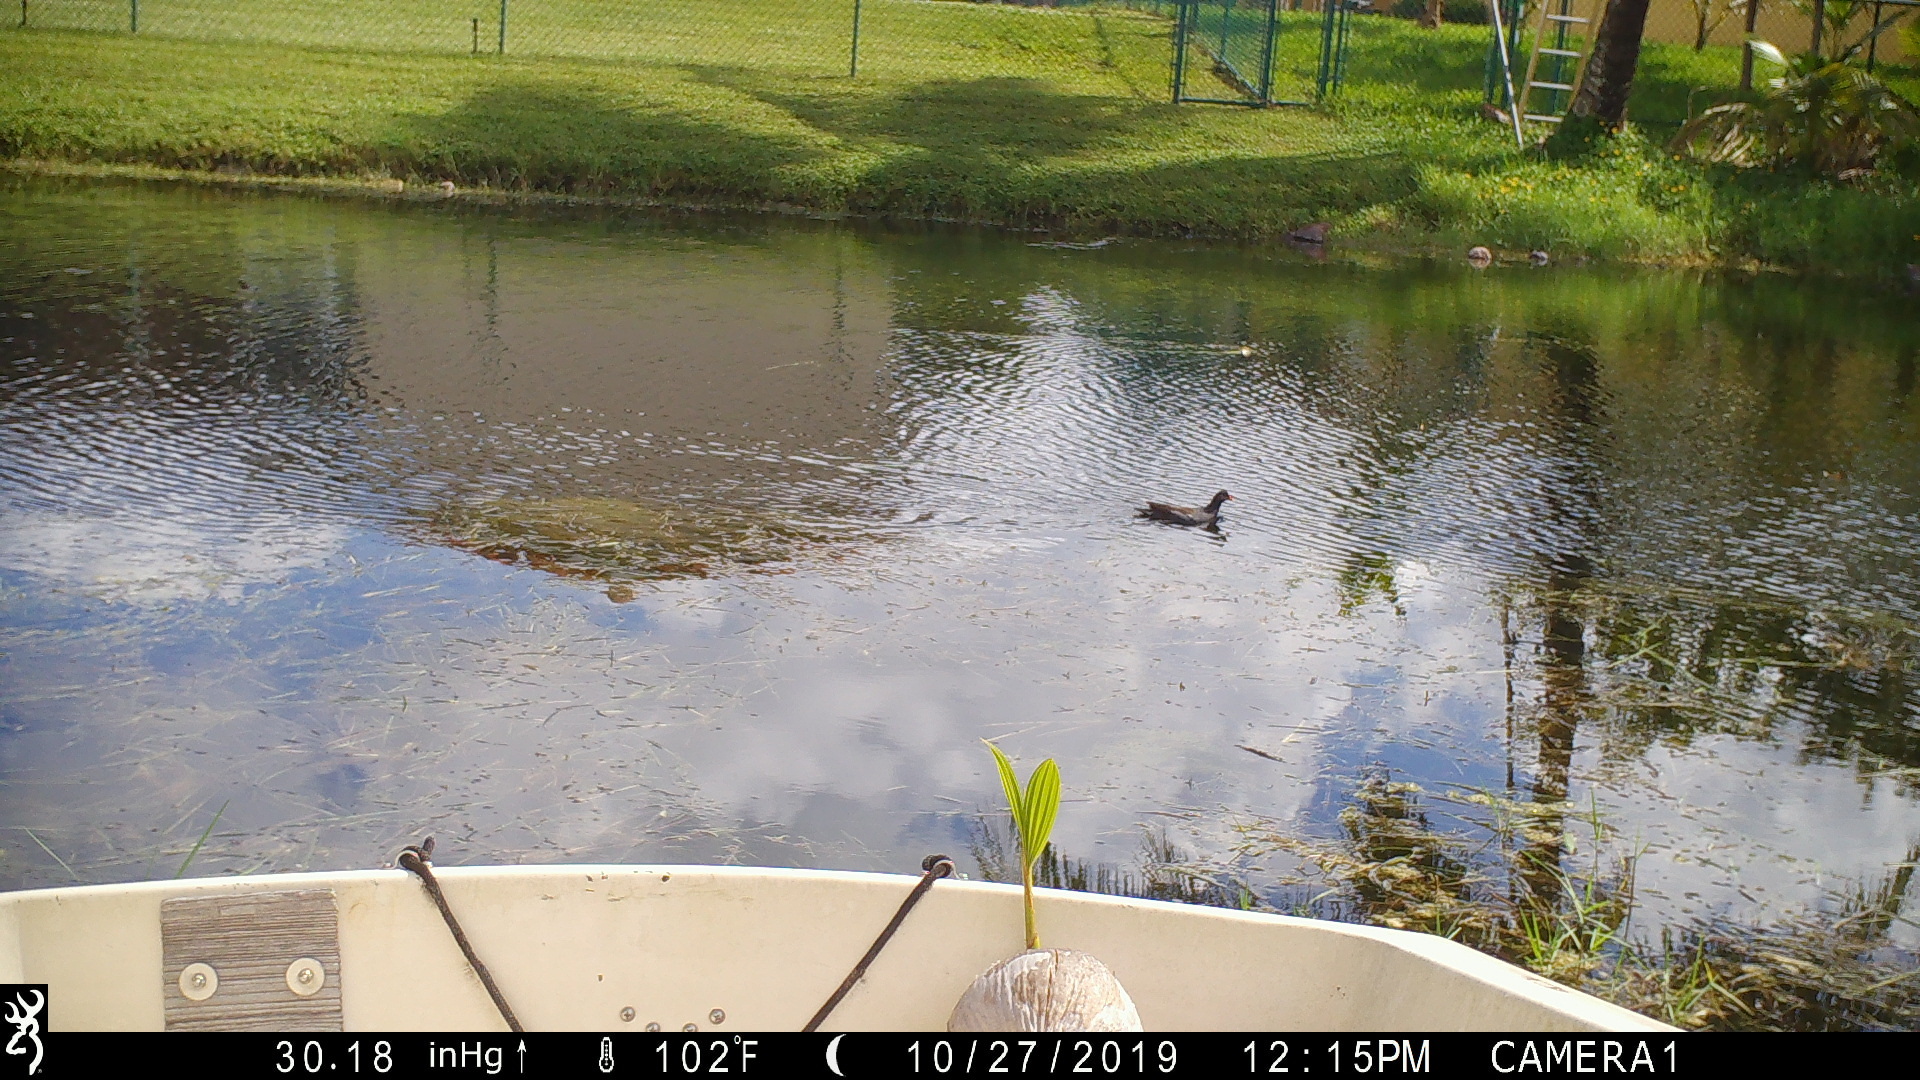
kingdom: Animalia
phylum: Chordata
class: Aves
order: Gruiformes
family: Rallidae
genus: Gallinula
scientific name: Gallinula chloropus
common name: Common moorhen
